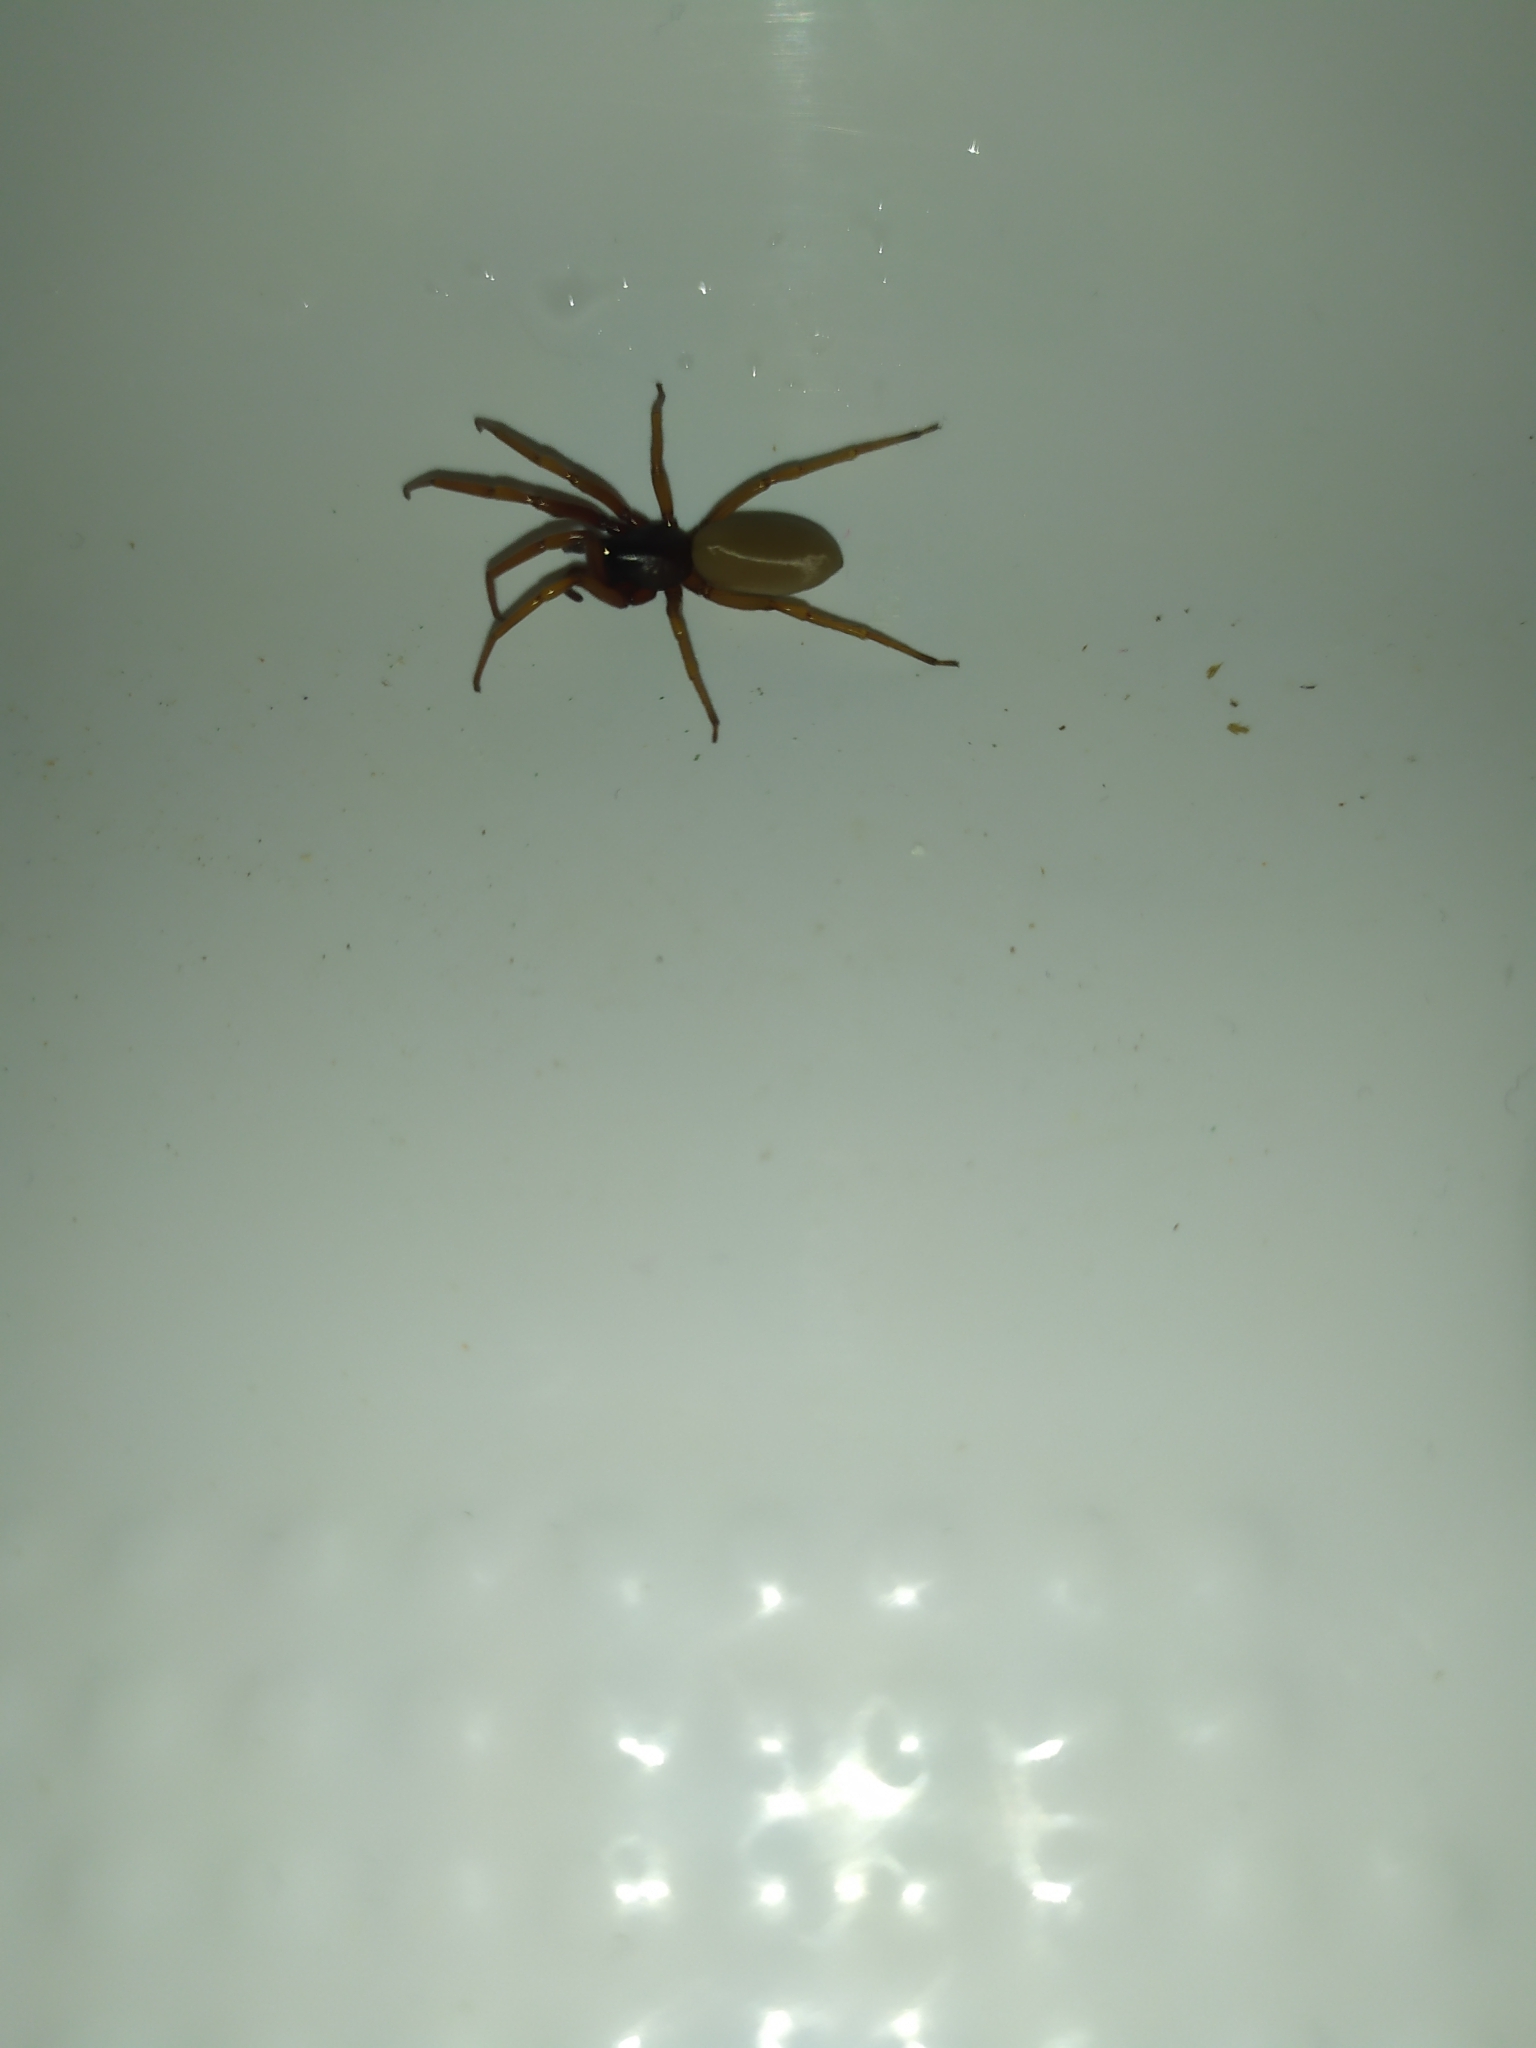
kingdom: Animalia
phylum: Arthropoda
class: Arachnida
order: Araneae
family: Dysderidae
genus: Harpactea
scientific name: Harpactea rubicunda
